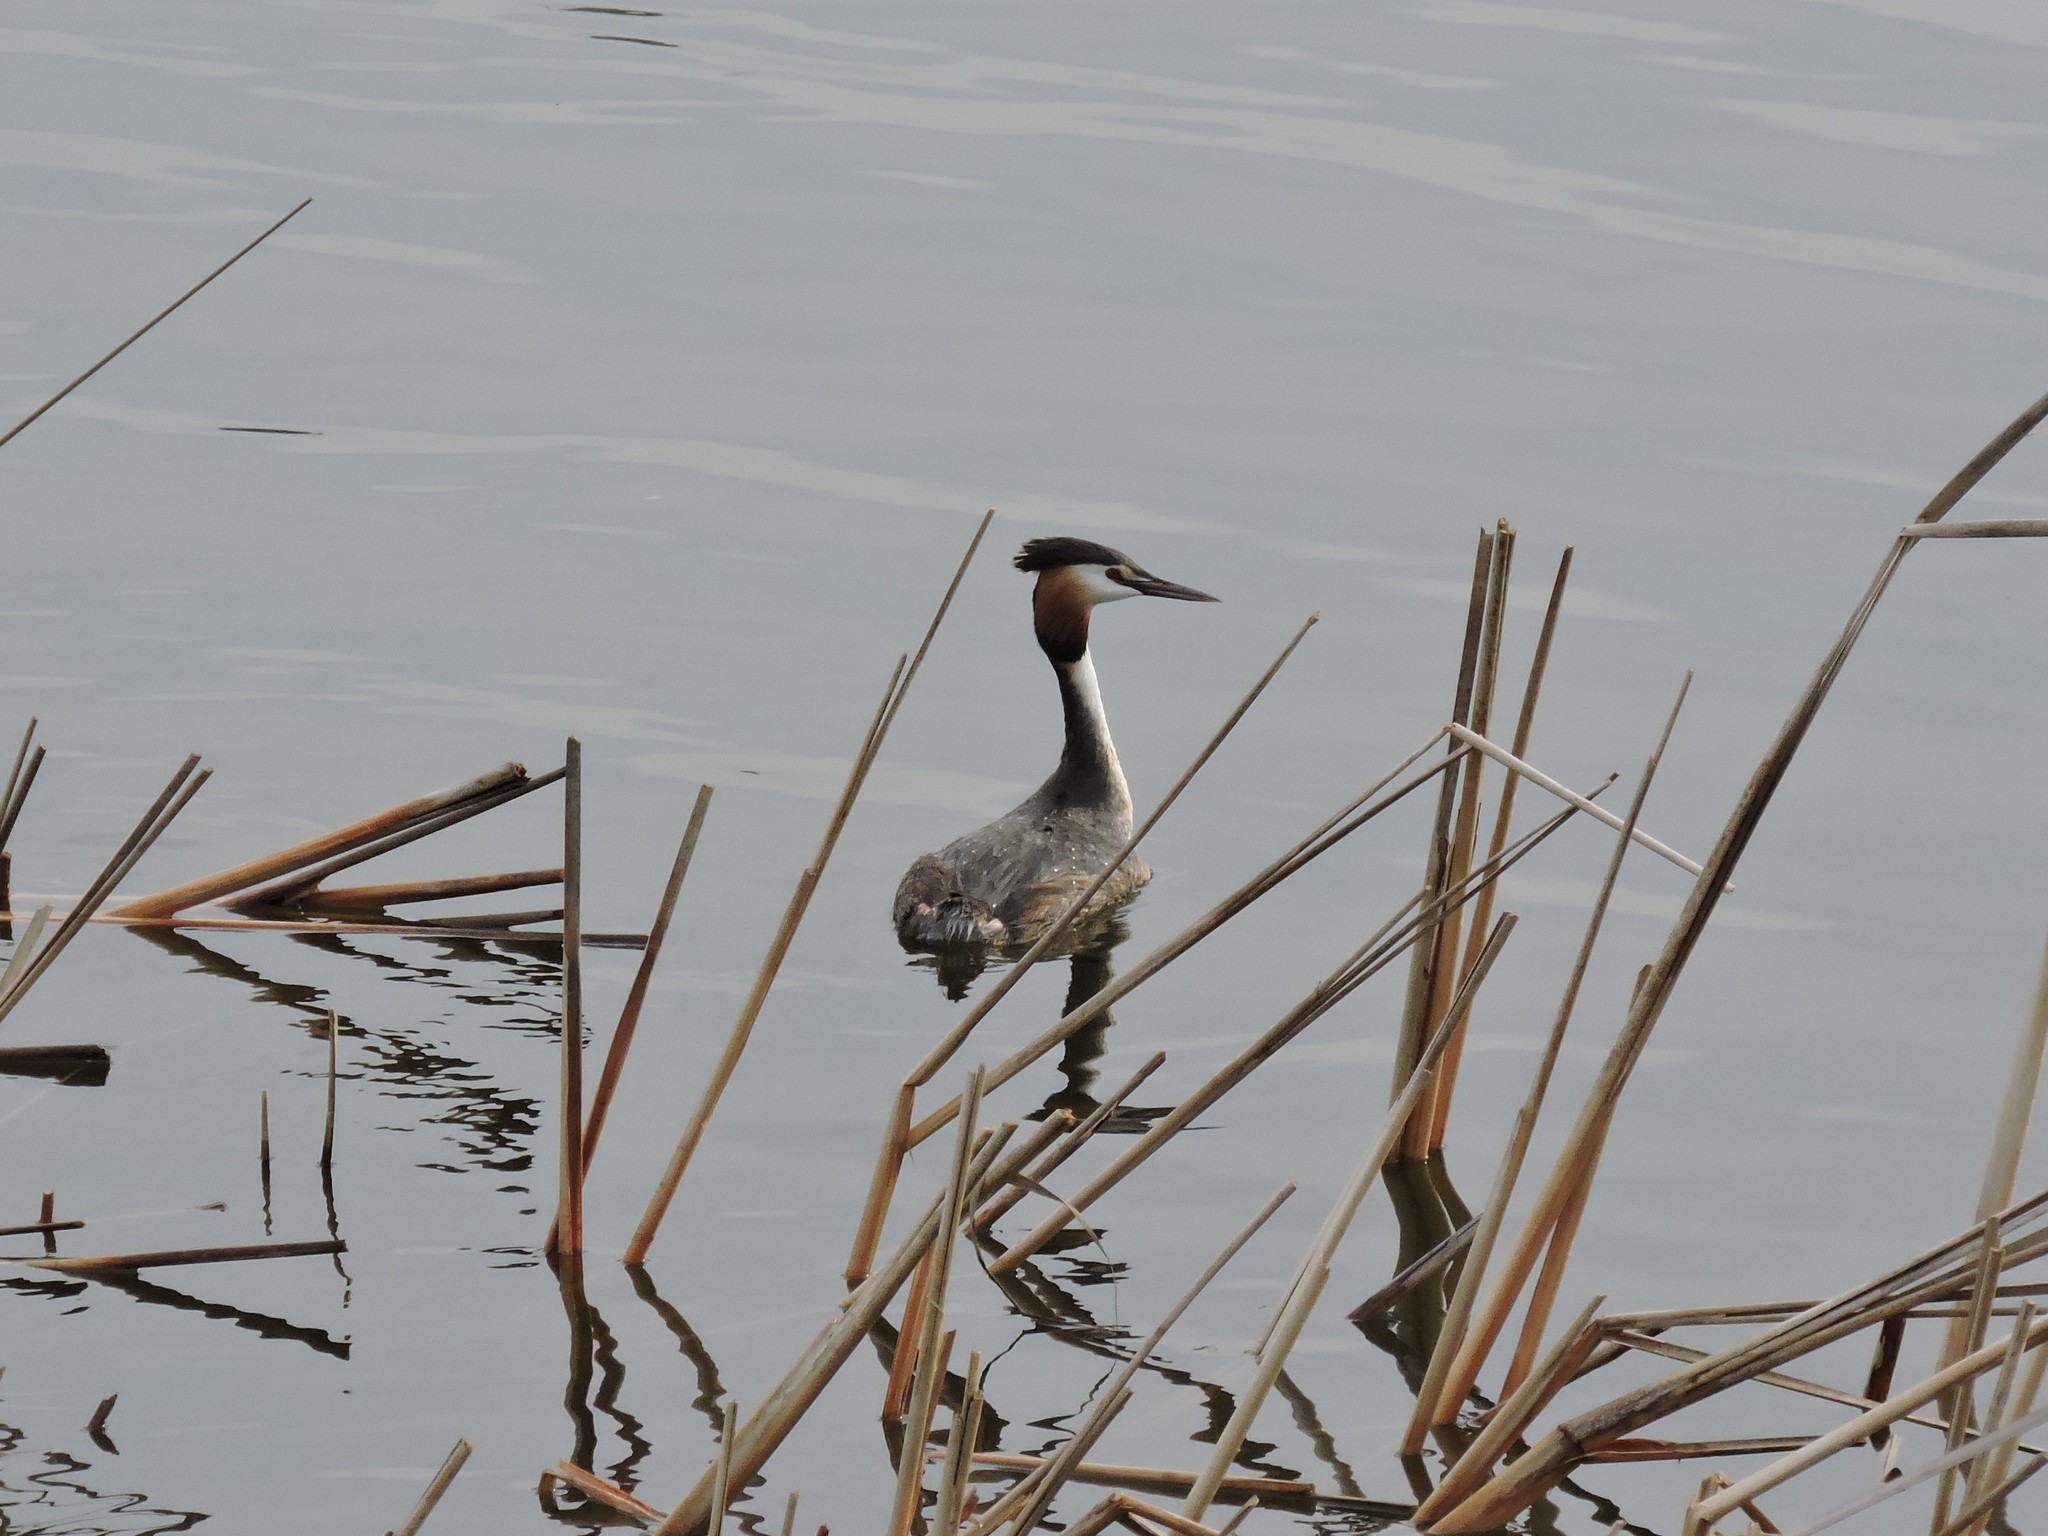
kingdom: Animalia
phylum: Chordata
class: Aves
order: Podicipediformes
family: Podicipedidae
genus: Podiceps
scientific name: Podiceps cristatus
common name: Great crested grebe
